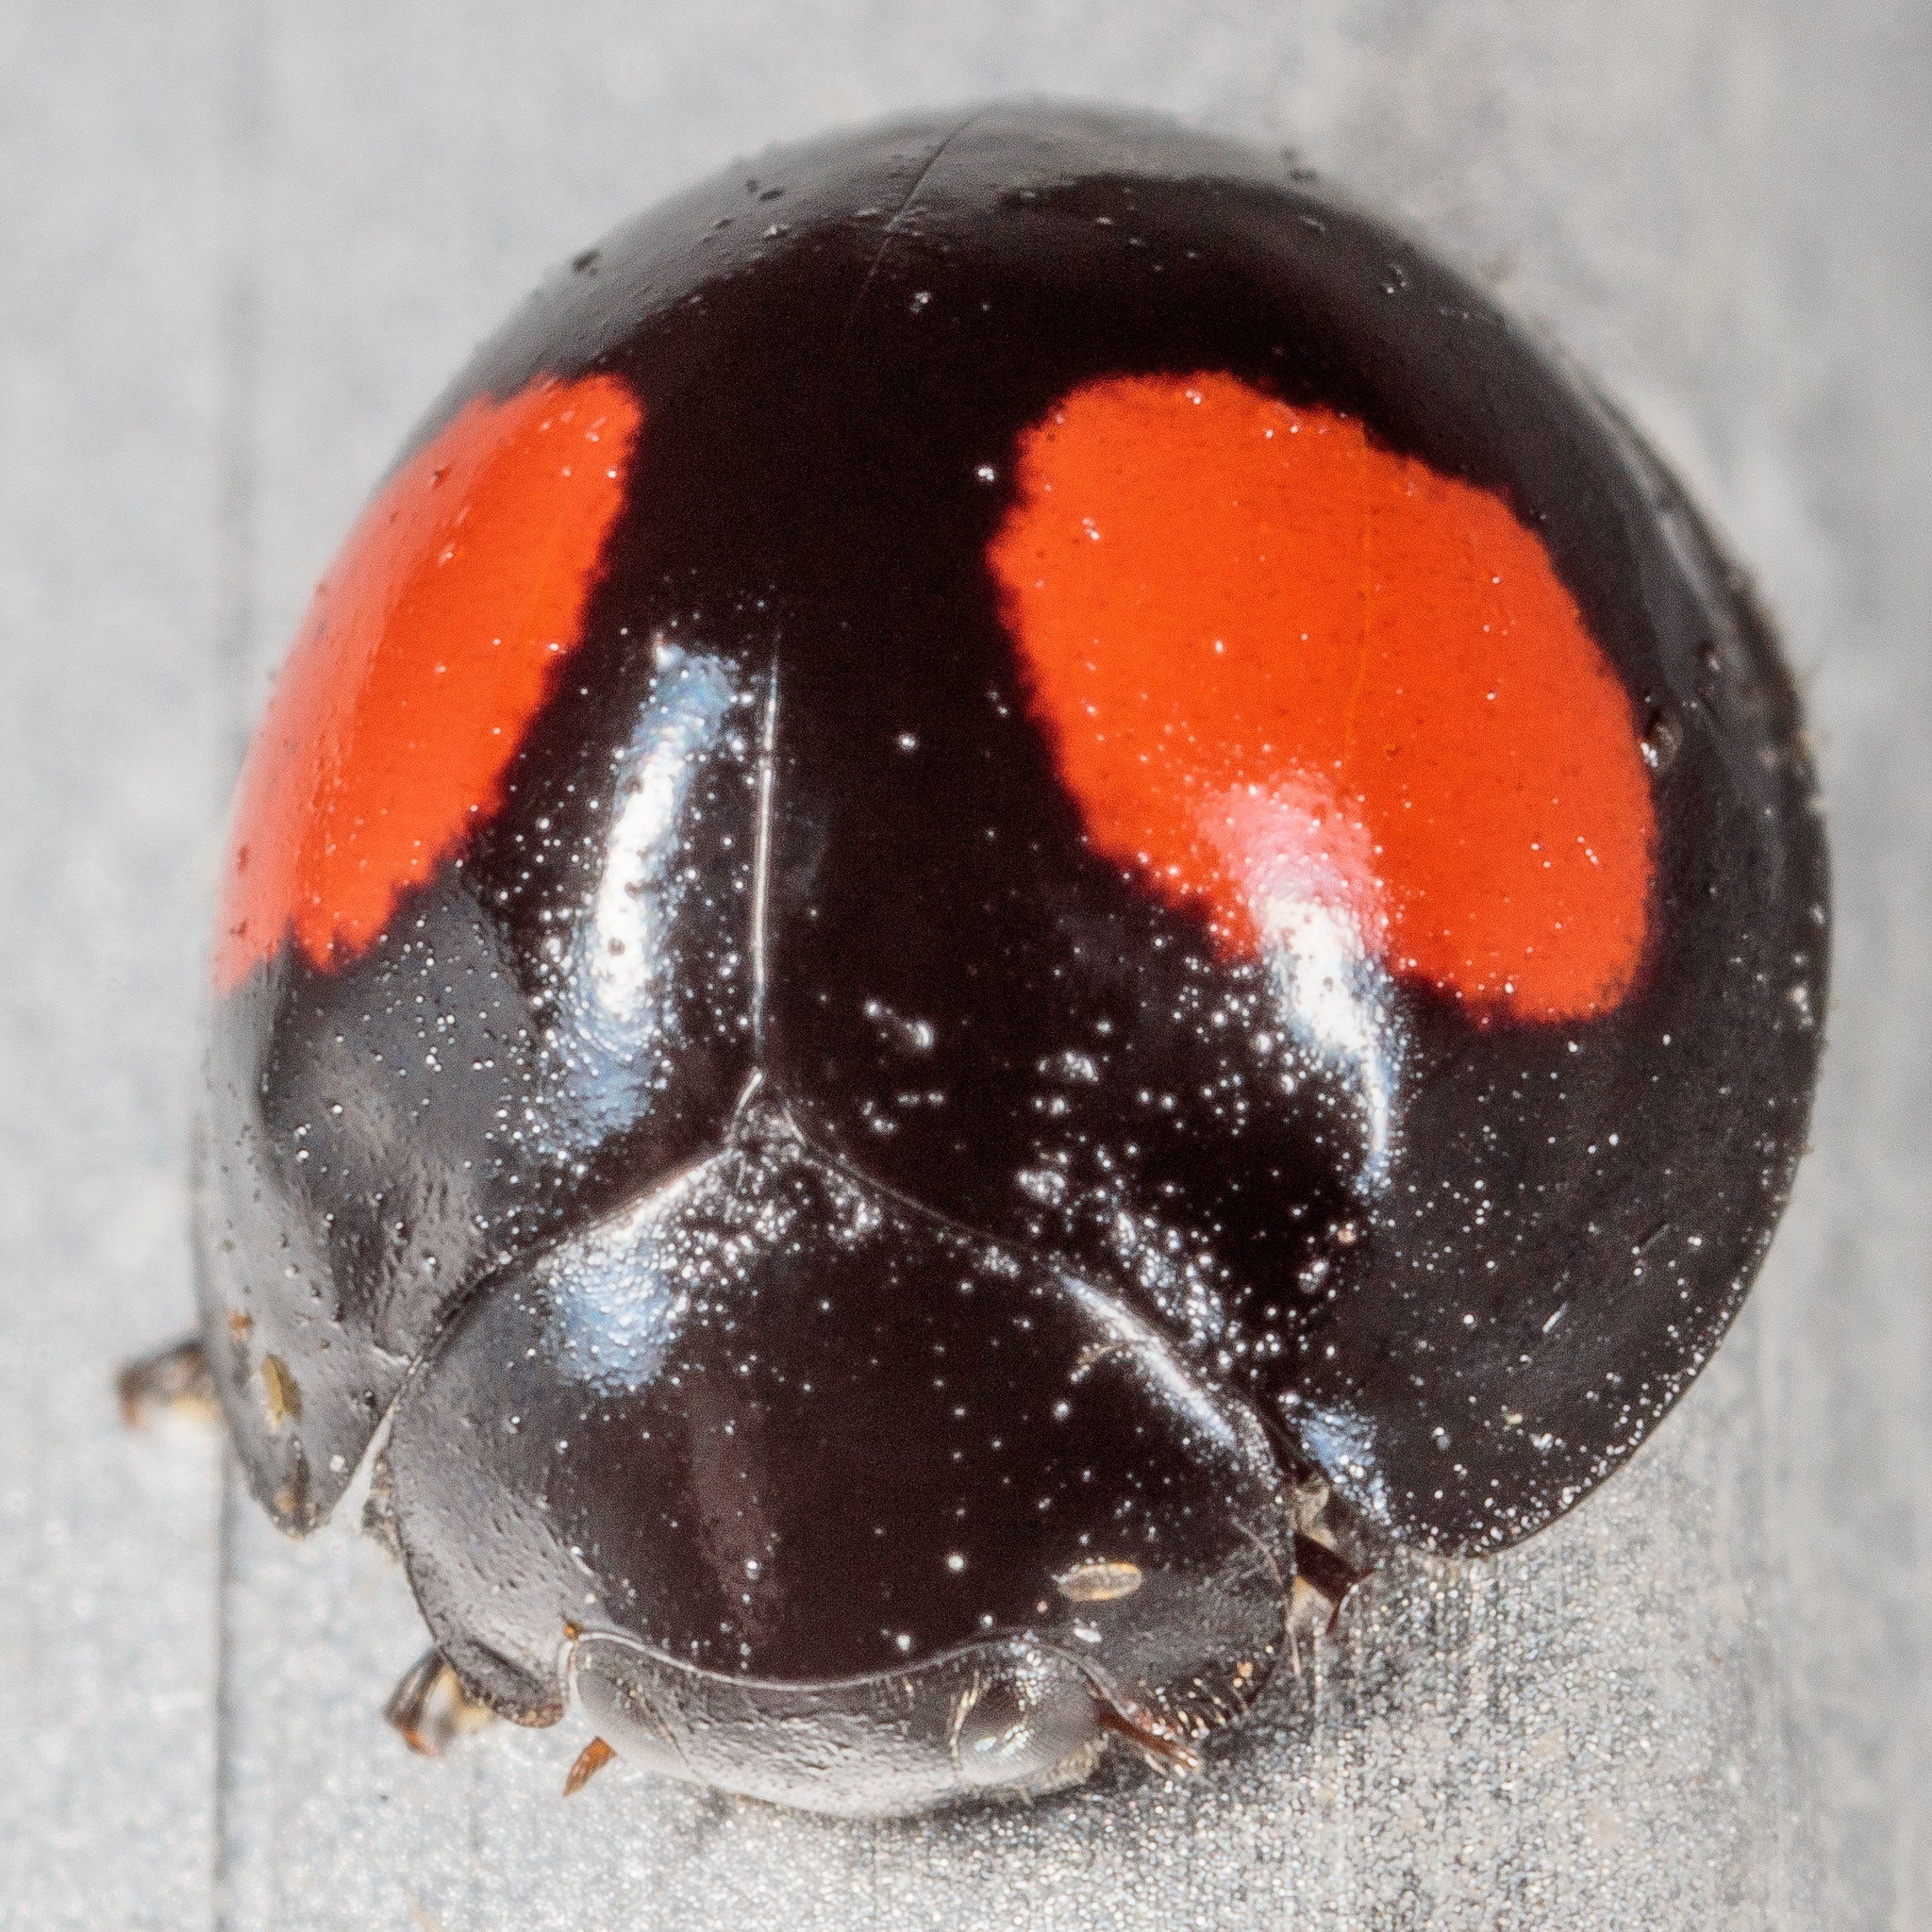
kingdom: Animalia
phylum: Arthropoda
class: Insecta
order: Coleoptera
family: Coccinellidae
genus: Chilocorus
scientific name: Chilocorus cacti
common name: Cactus lady beetle
